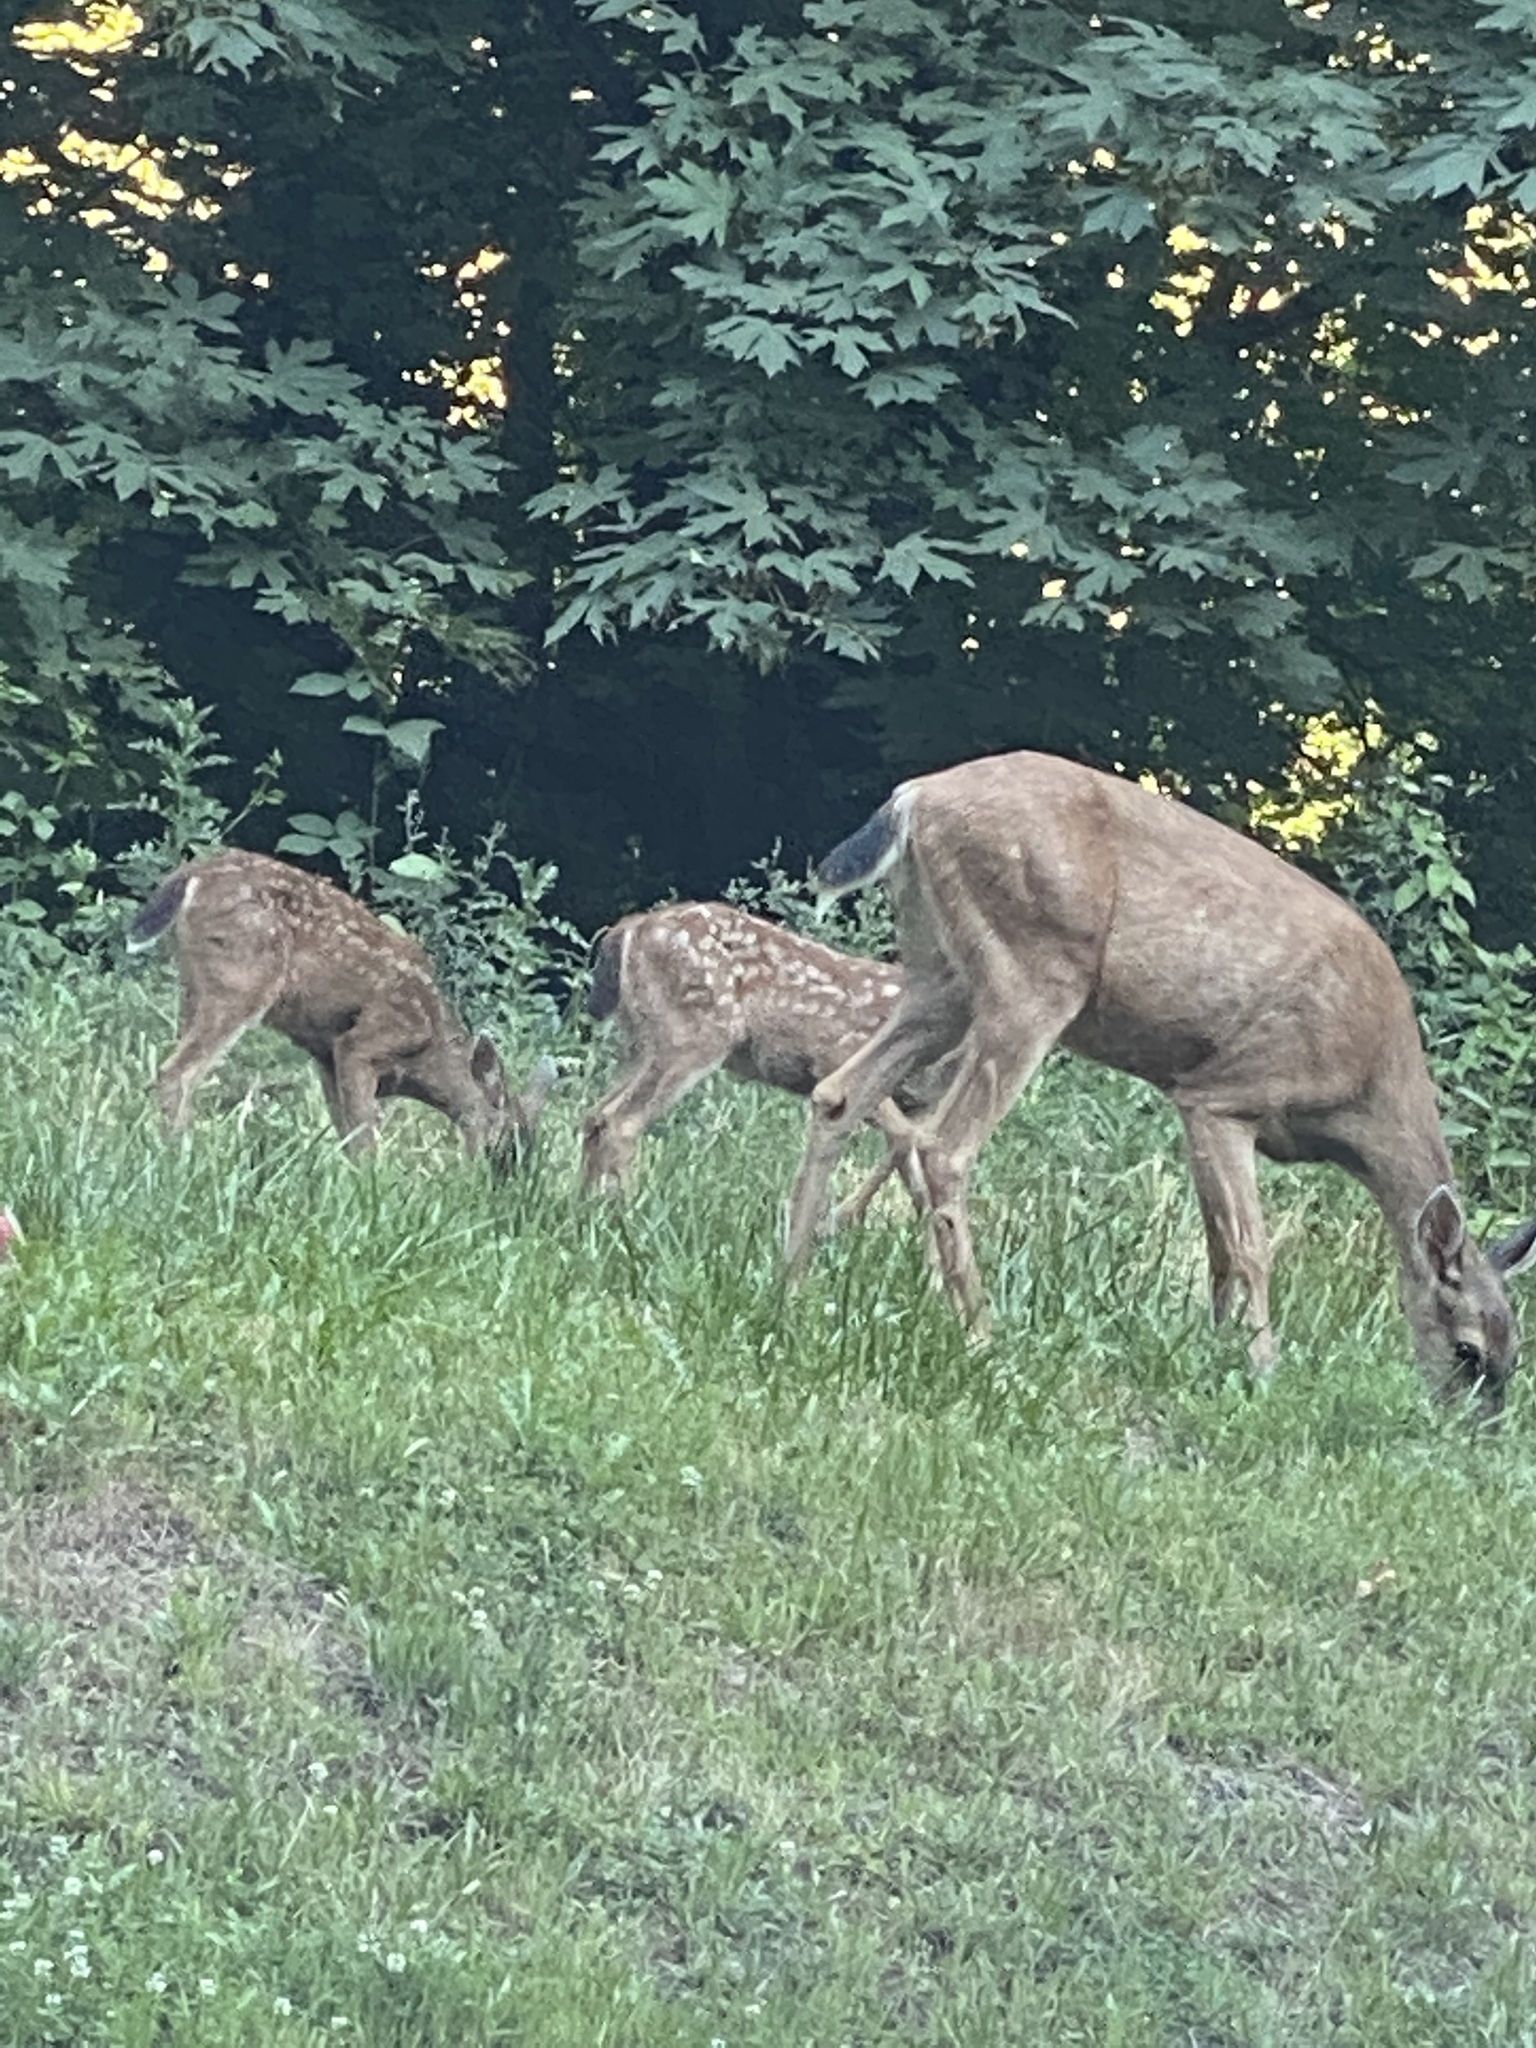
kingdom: Animalia
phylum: Chordata
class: Mammalia
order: Artiodactyla
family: Cervidae
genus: Odocoileus
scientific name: Odocoileus hemionus
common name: Mule deer
